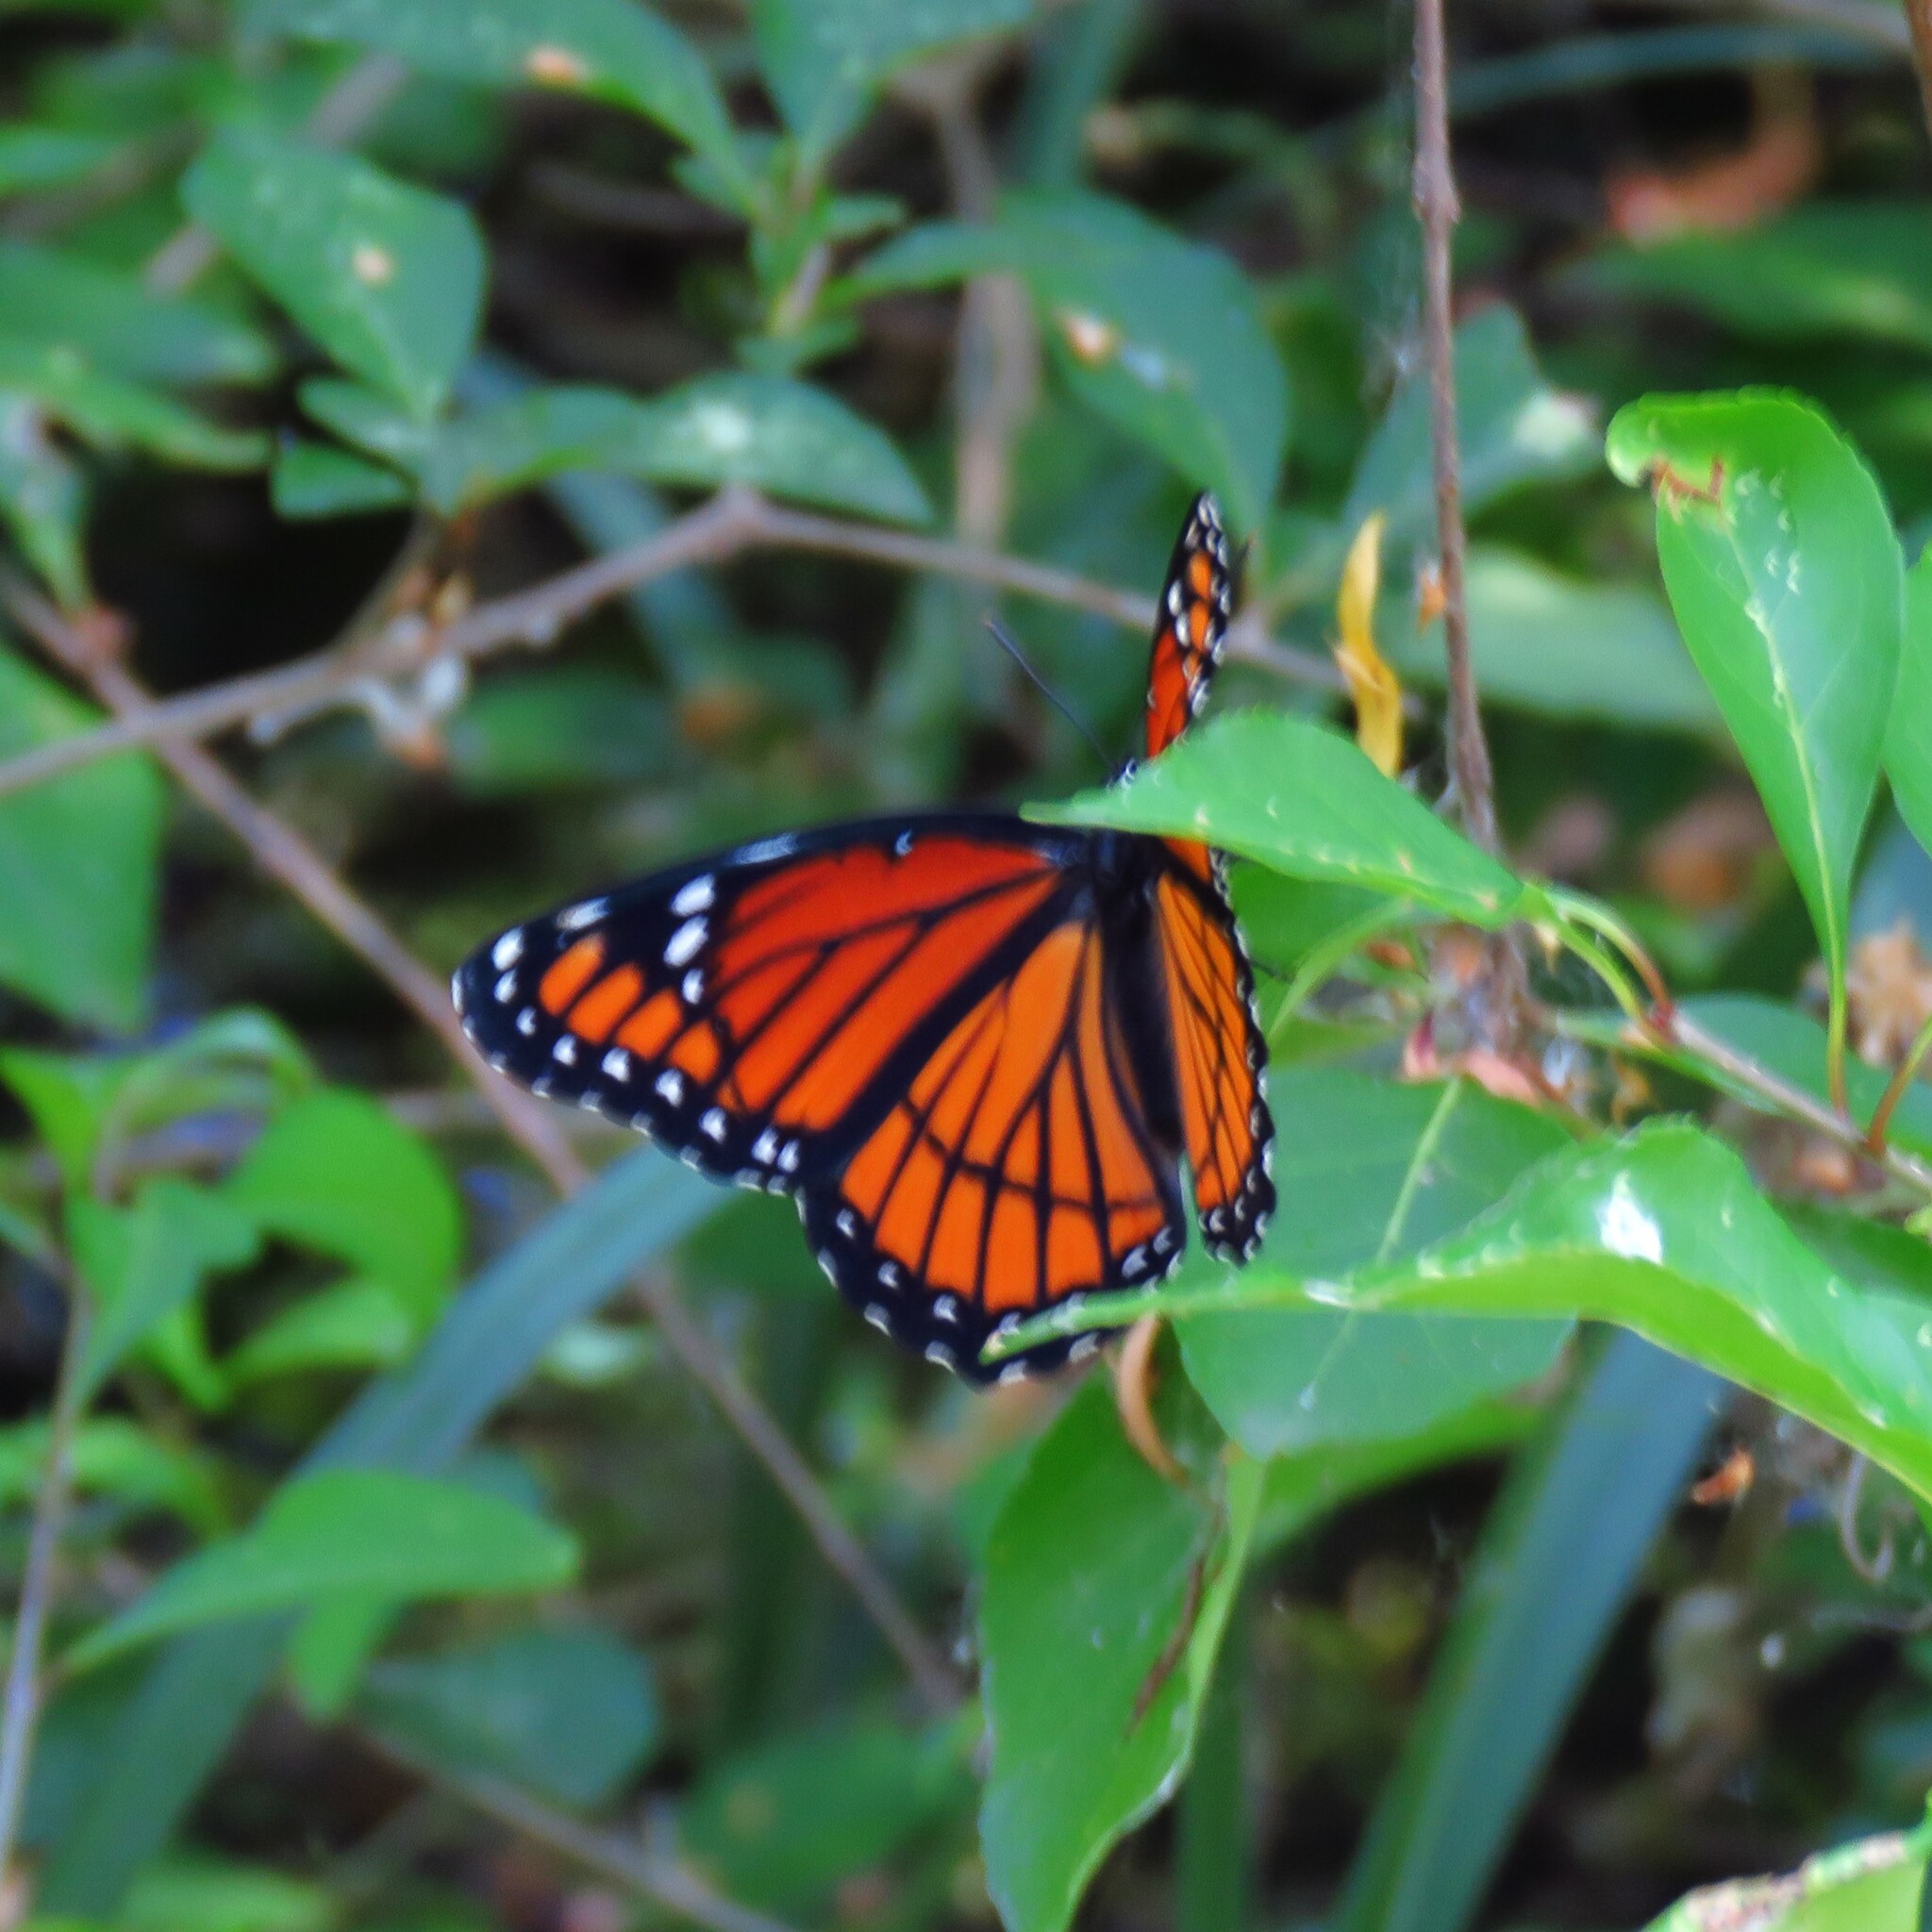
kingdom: Animalia
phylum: Arthropoda
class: Insecta
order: Lepidoptera
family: Nymphalidae
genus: Limenitis
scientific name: Limenitis archippus
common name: Viceroy
